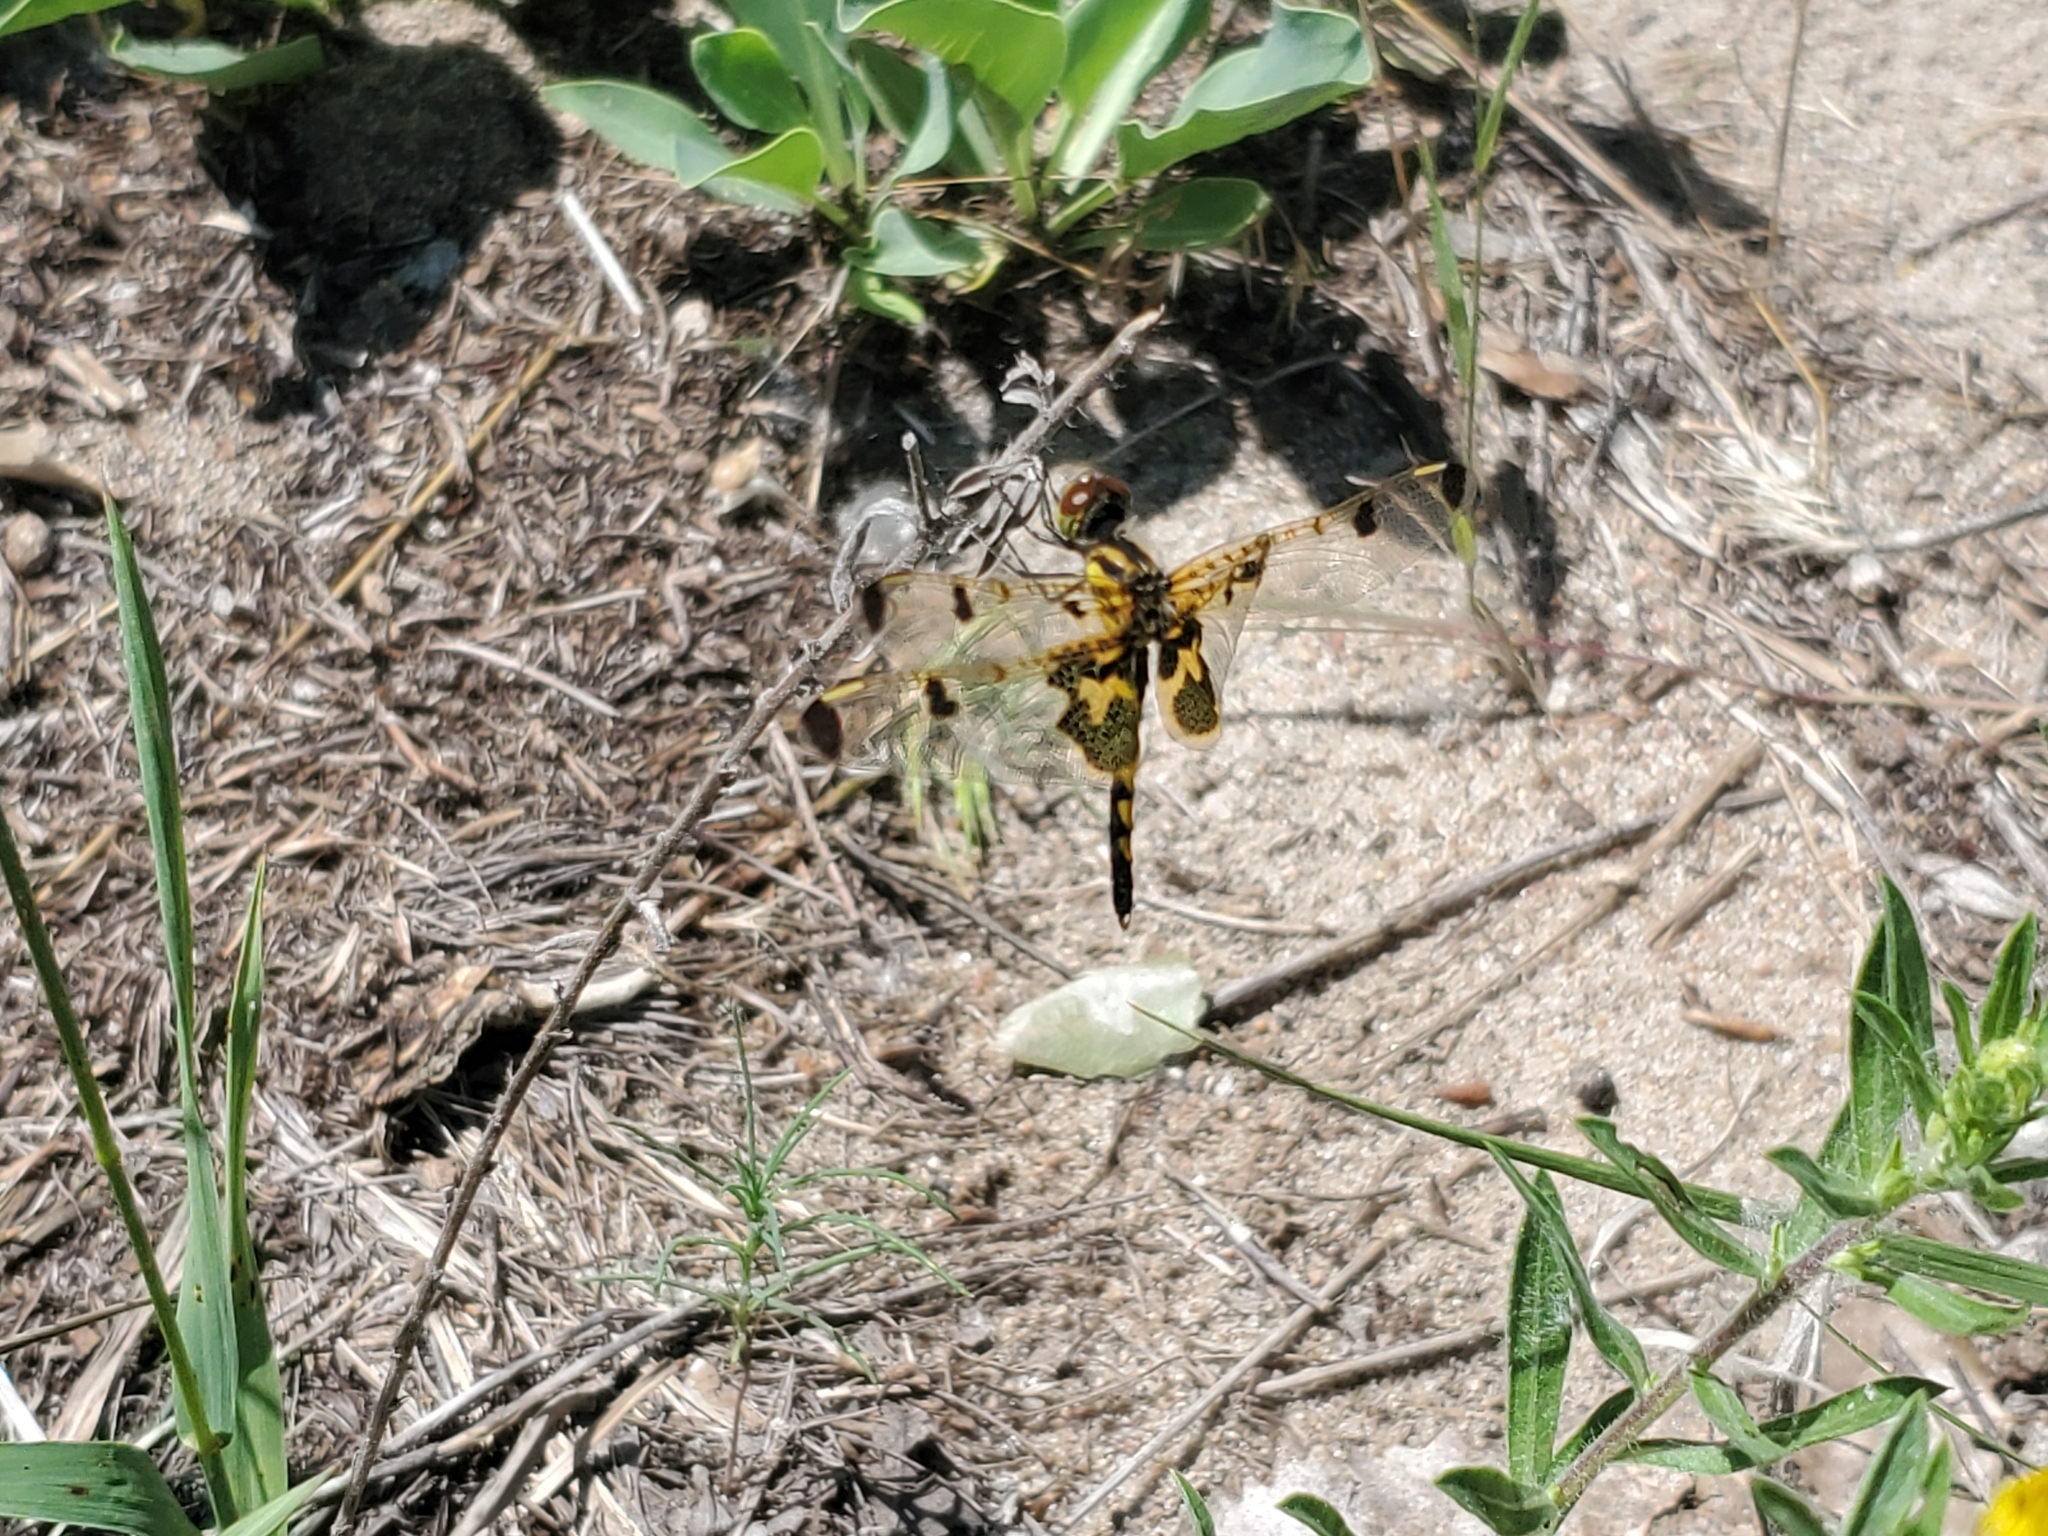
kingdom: Animalia
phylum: Arthropoda
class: Insecta
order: Odonata
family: Libellulidae
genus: Celithemis
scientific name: Celithemis elisa
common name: Calico pennant
